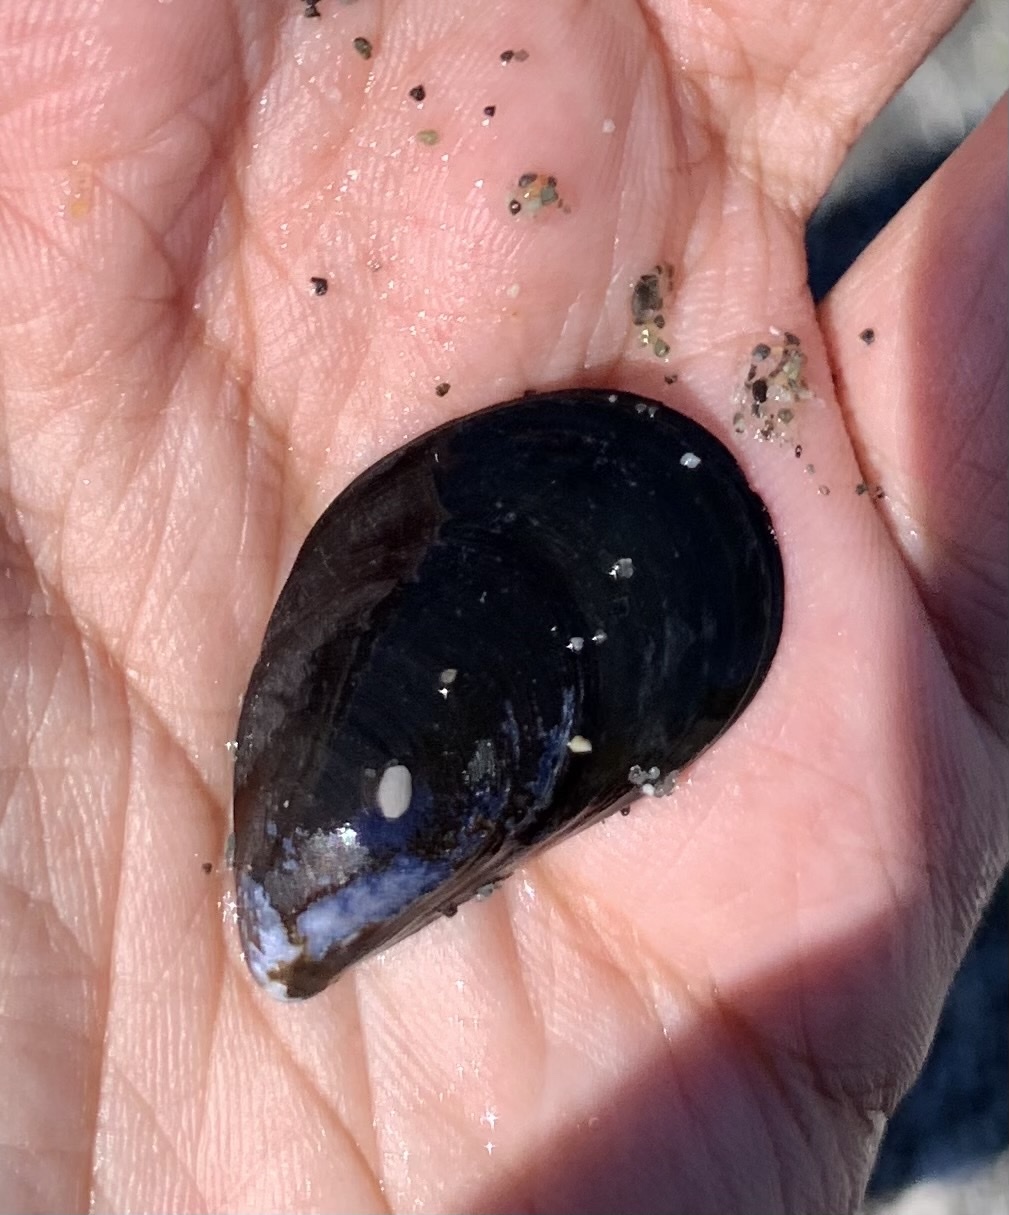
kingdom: Animalia
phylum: Mollusca
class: Bivalvia
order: Mytilida
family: Mytilidae
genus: Mytilus
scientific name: Mytilus
